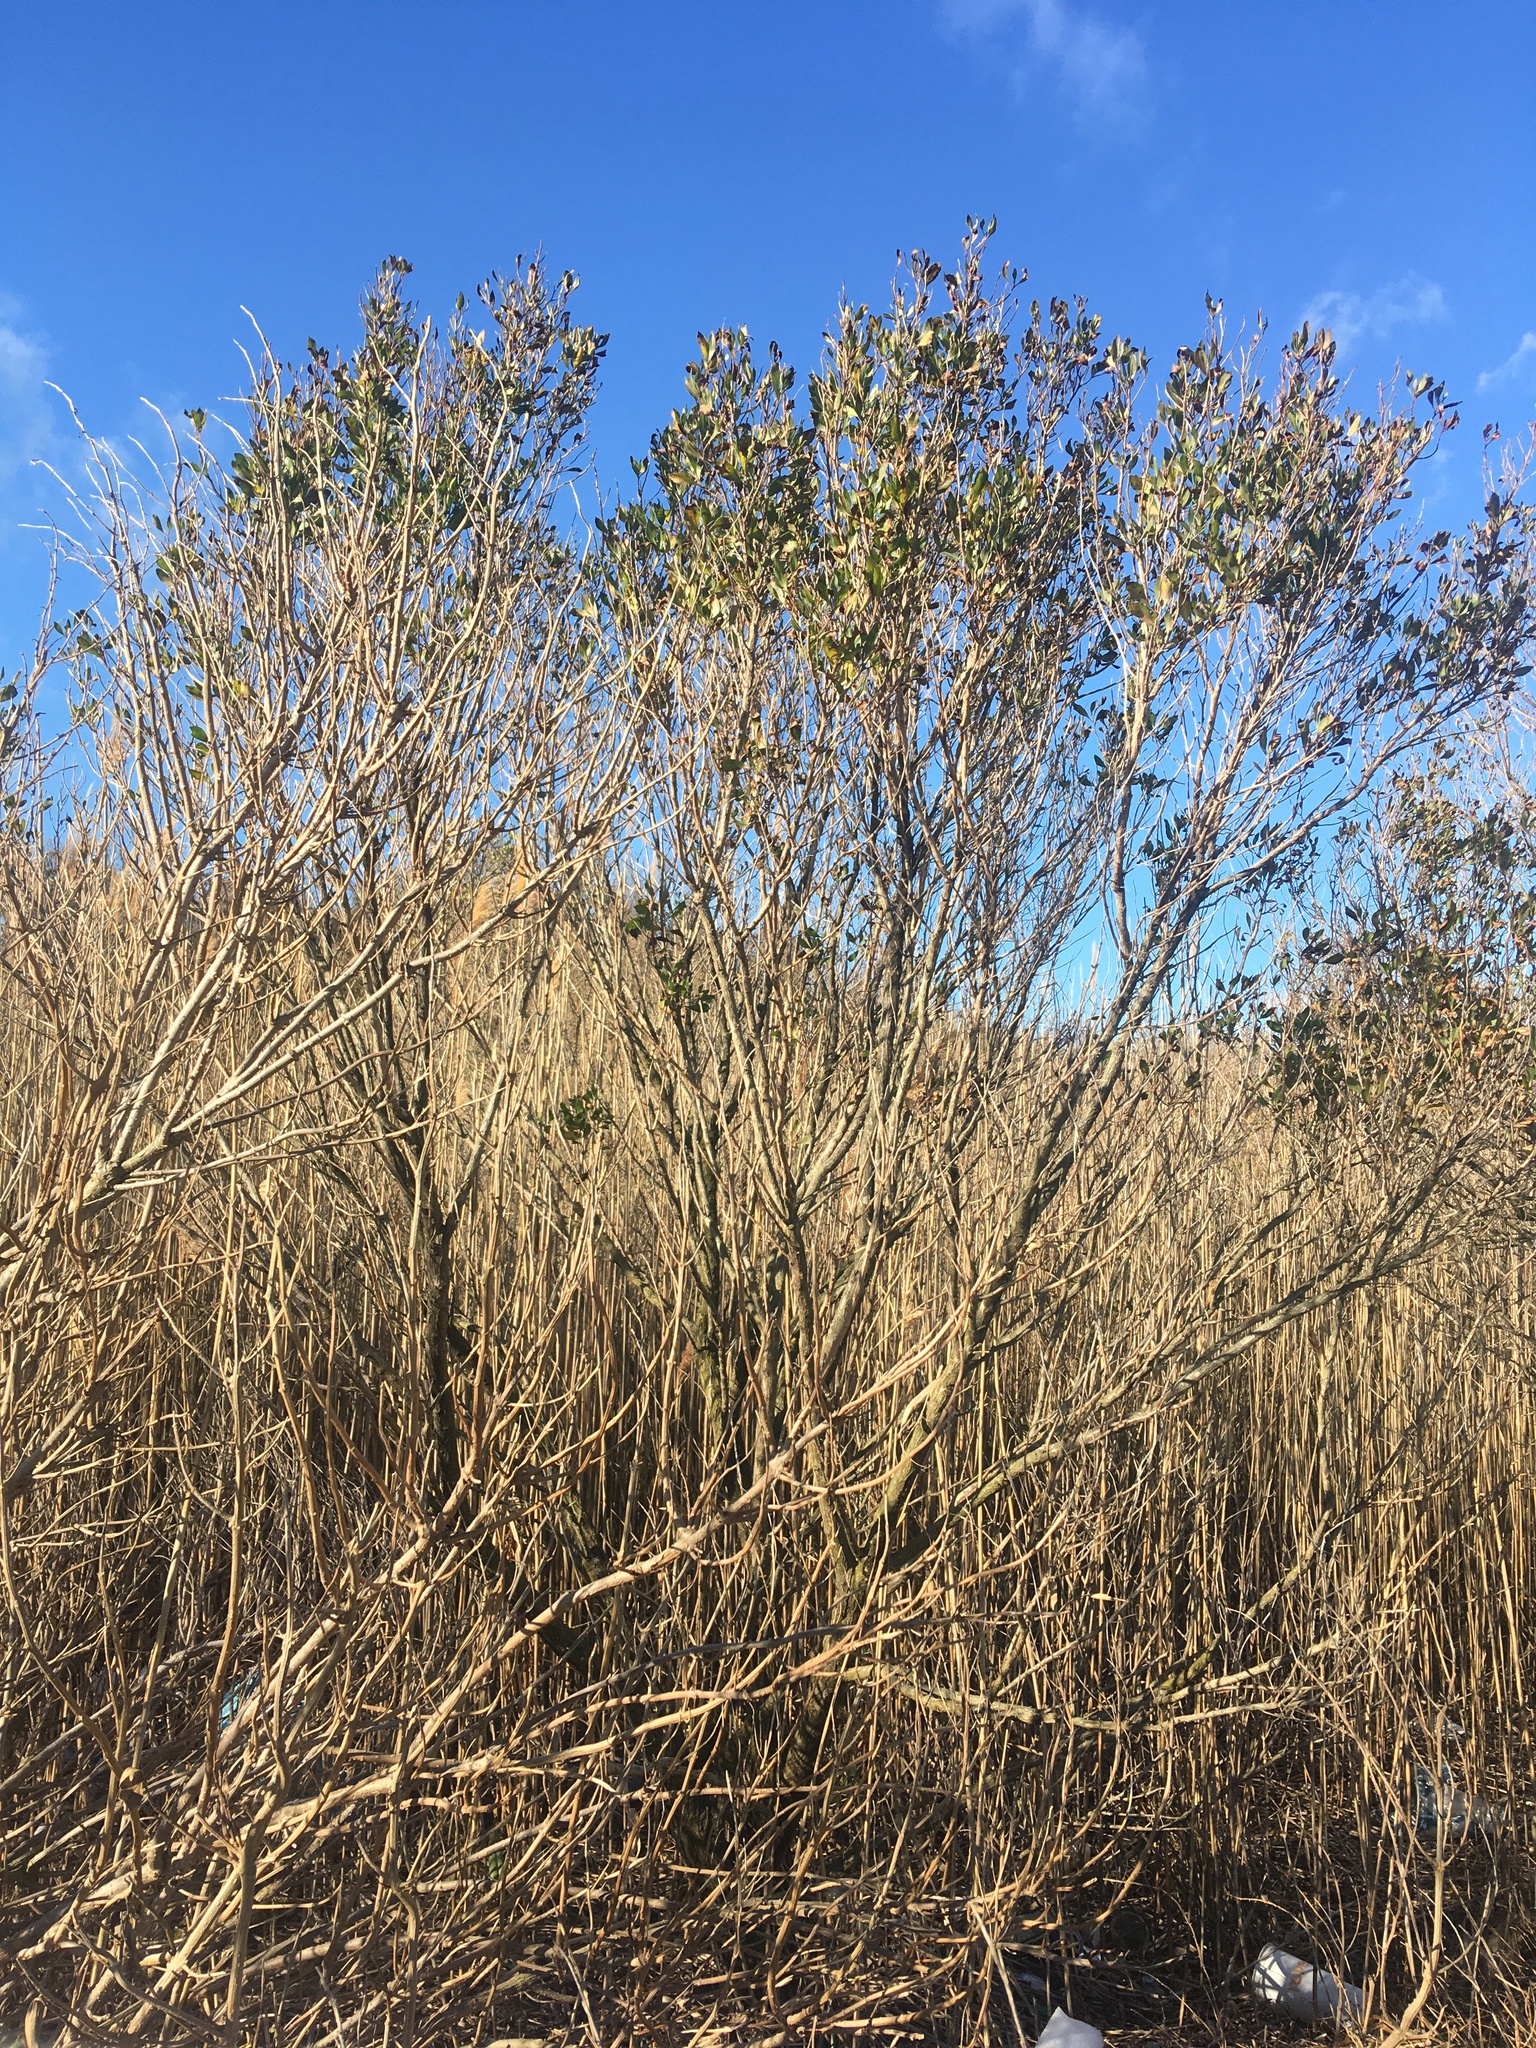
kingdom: Plantae
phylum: Tracheophyta
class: Magnoliopsida
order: Asterales
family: Asteraceae
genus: Baccharis
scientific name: Baccharis halimifolia
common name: Eastern baccharis
